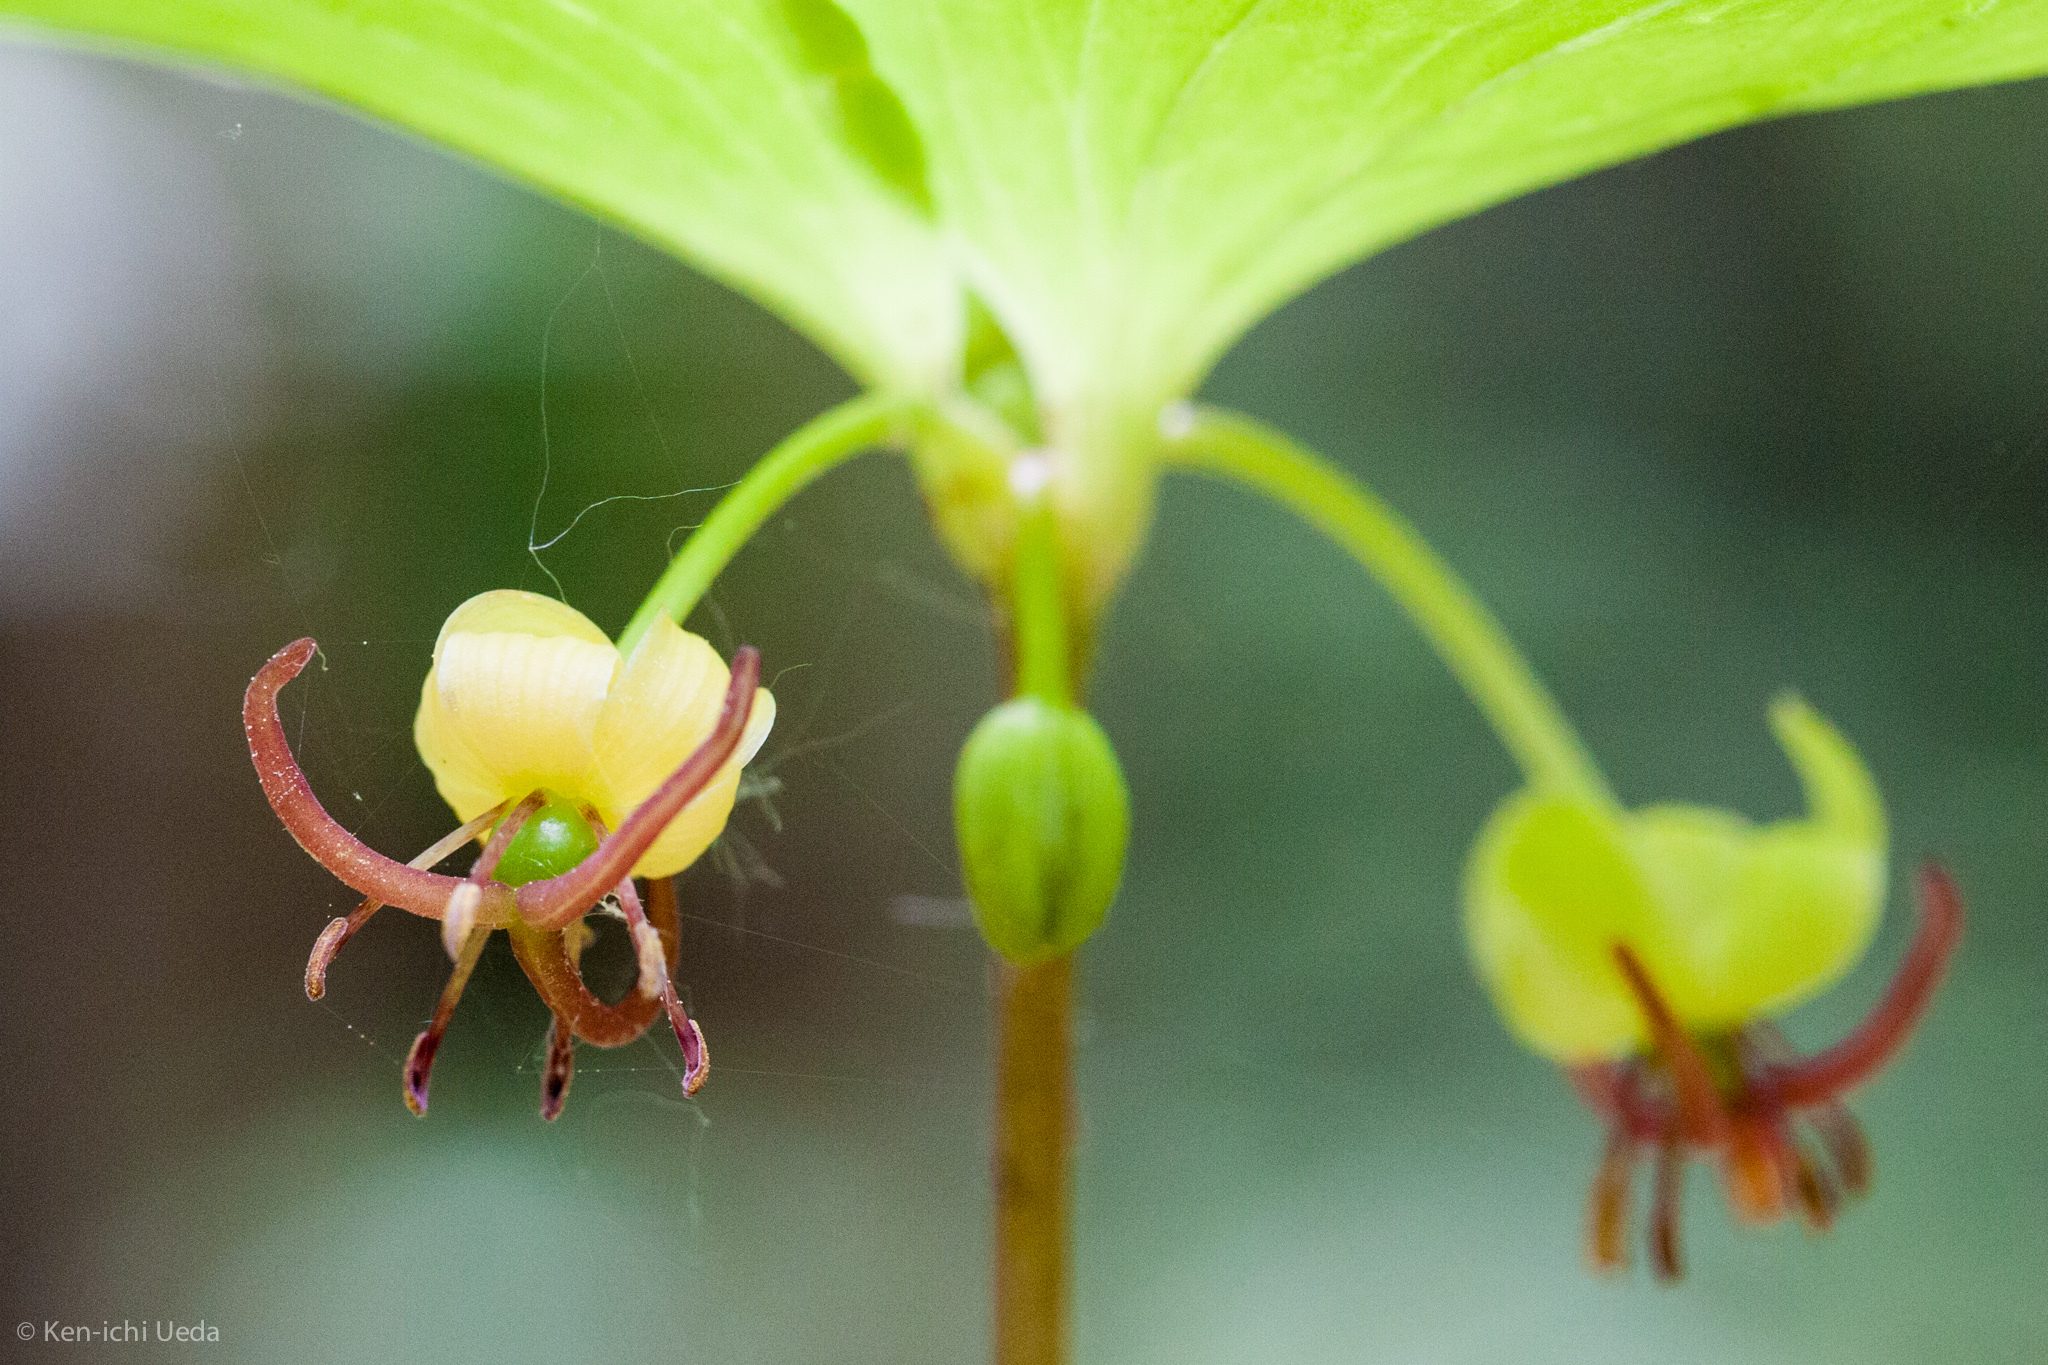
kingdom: Plantae
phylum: Tracheophyta
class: Liliopsida
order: Liliales
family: Liliaceae
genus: Medeola
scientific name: Medeola virginiana
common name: Indian cucumber-root
